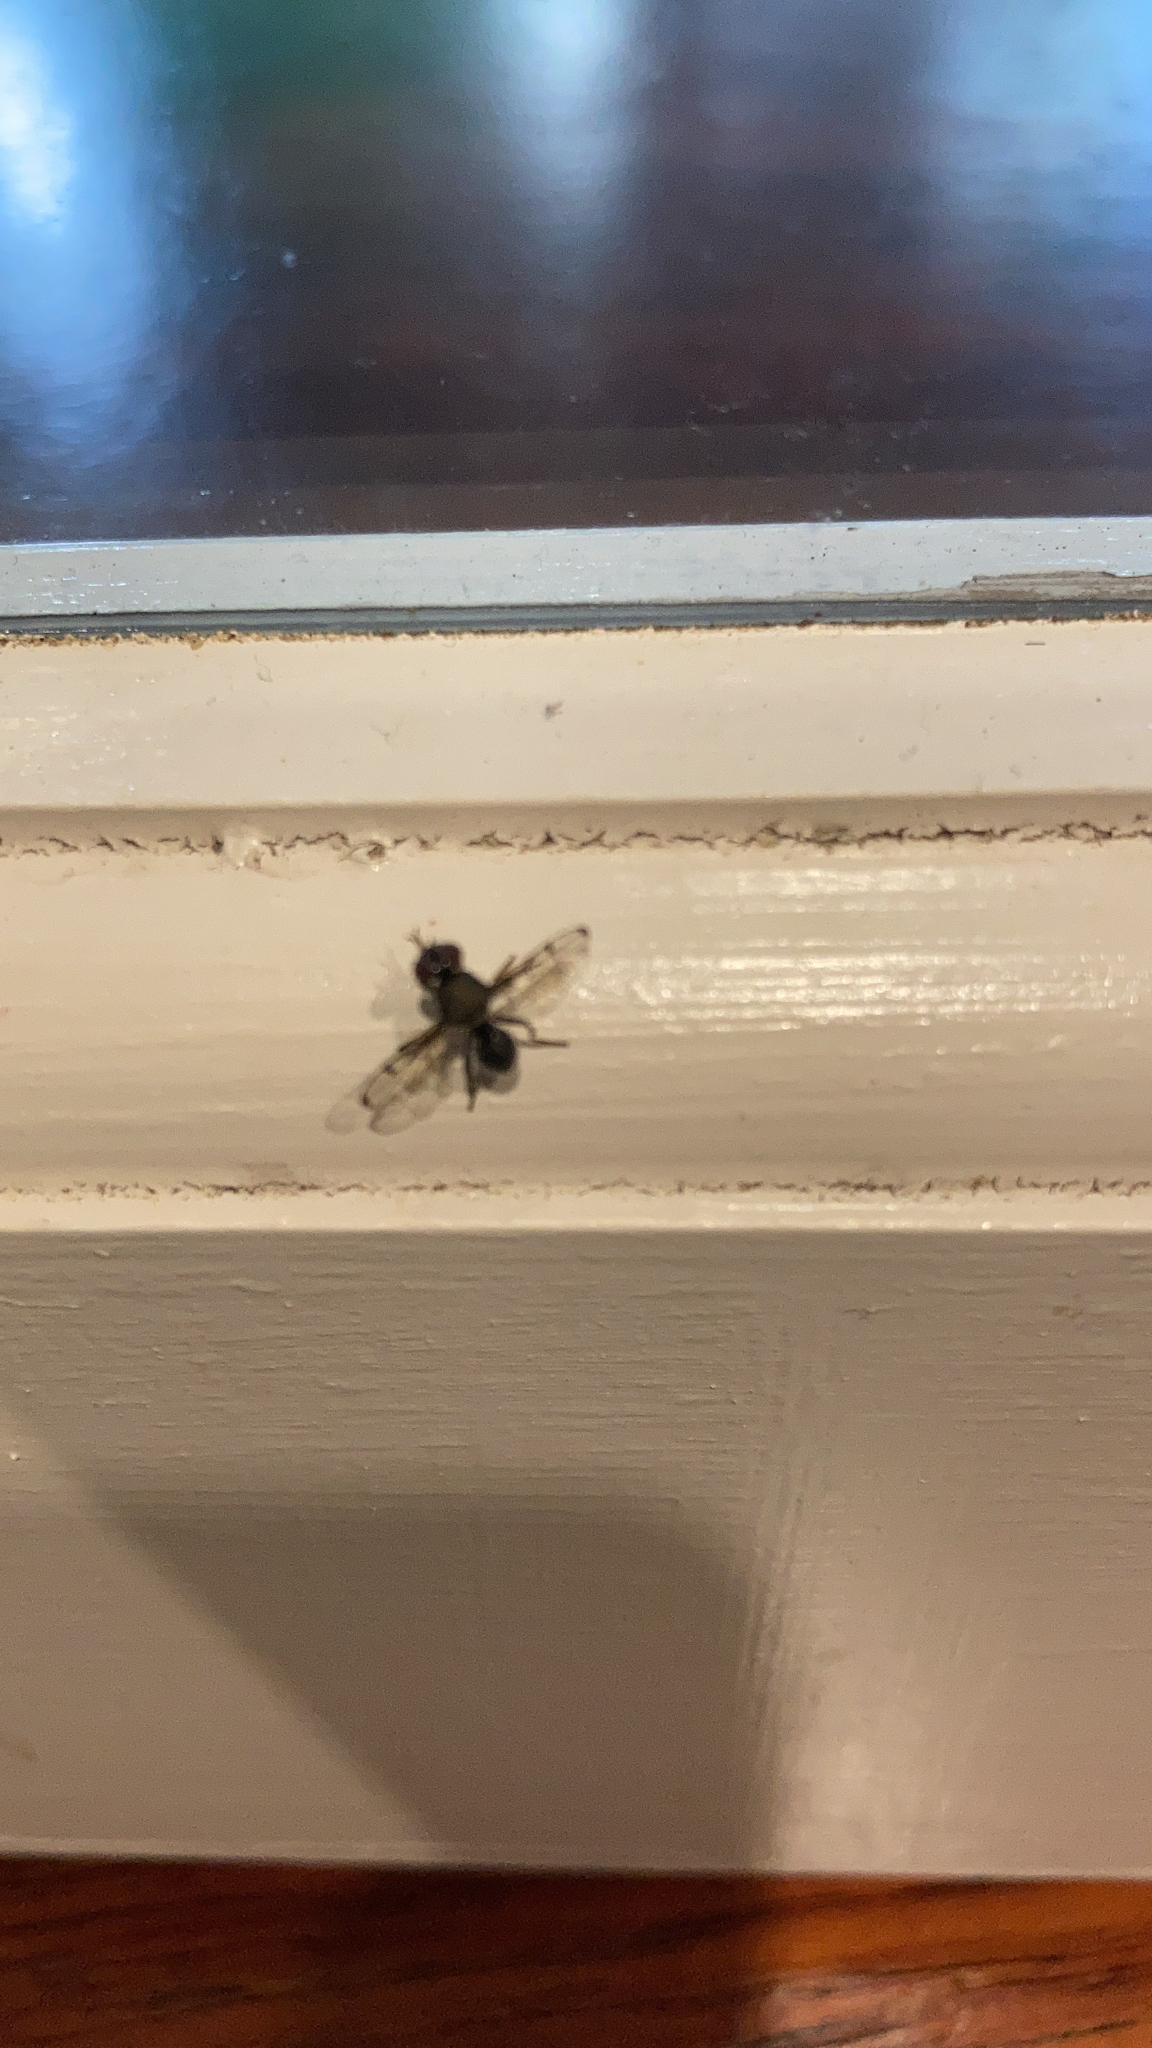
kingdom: Animalia
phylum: Arthropoda
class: Insecta
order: Diptera
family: Platystomatidae
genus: Pogonortalis
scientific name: Pogonortalis doclea
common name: Boatman fly
